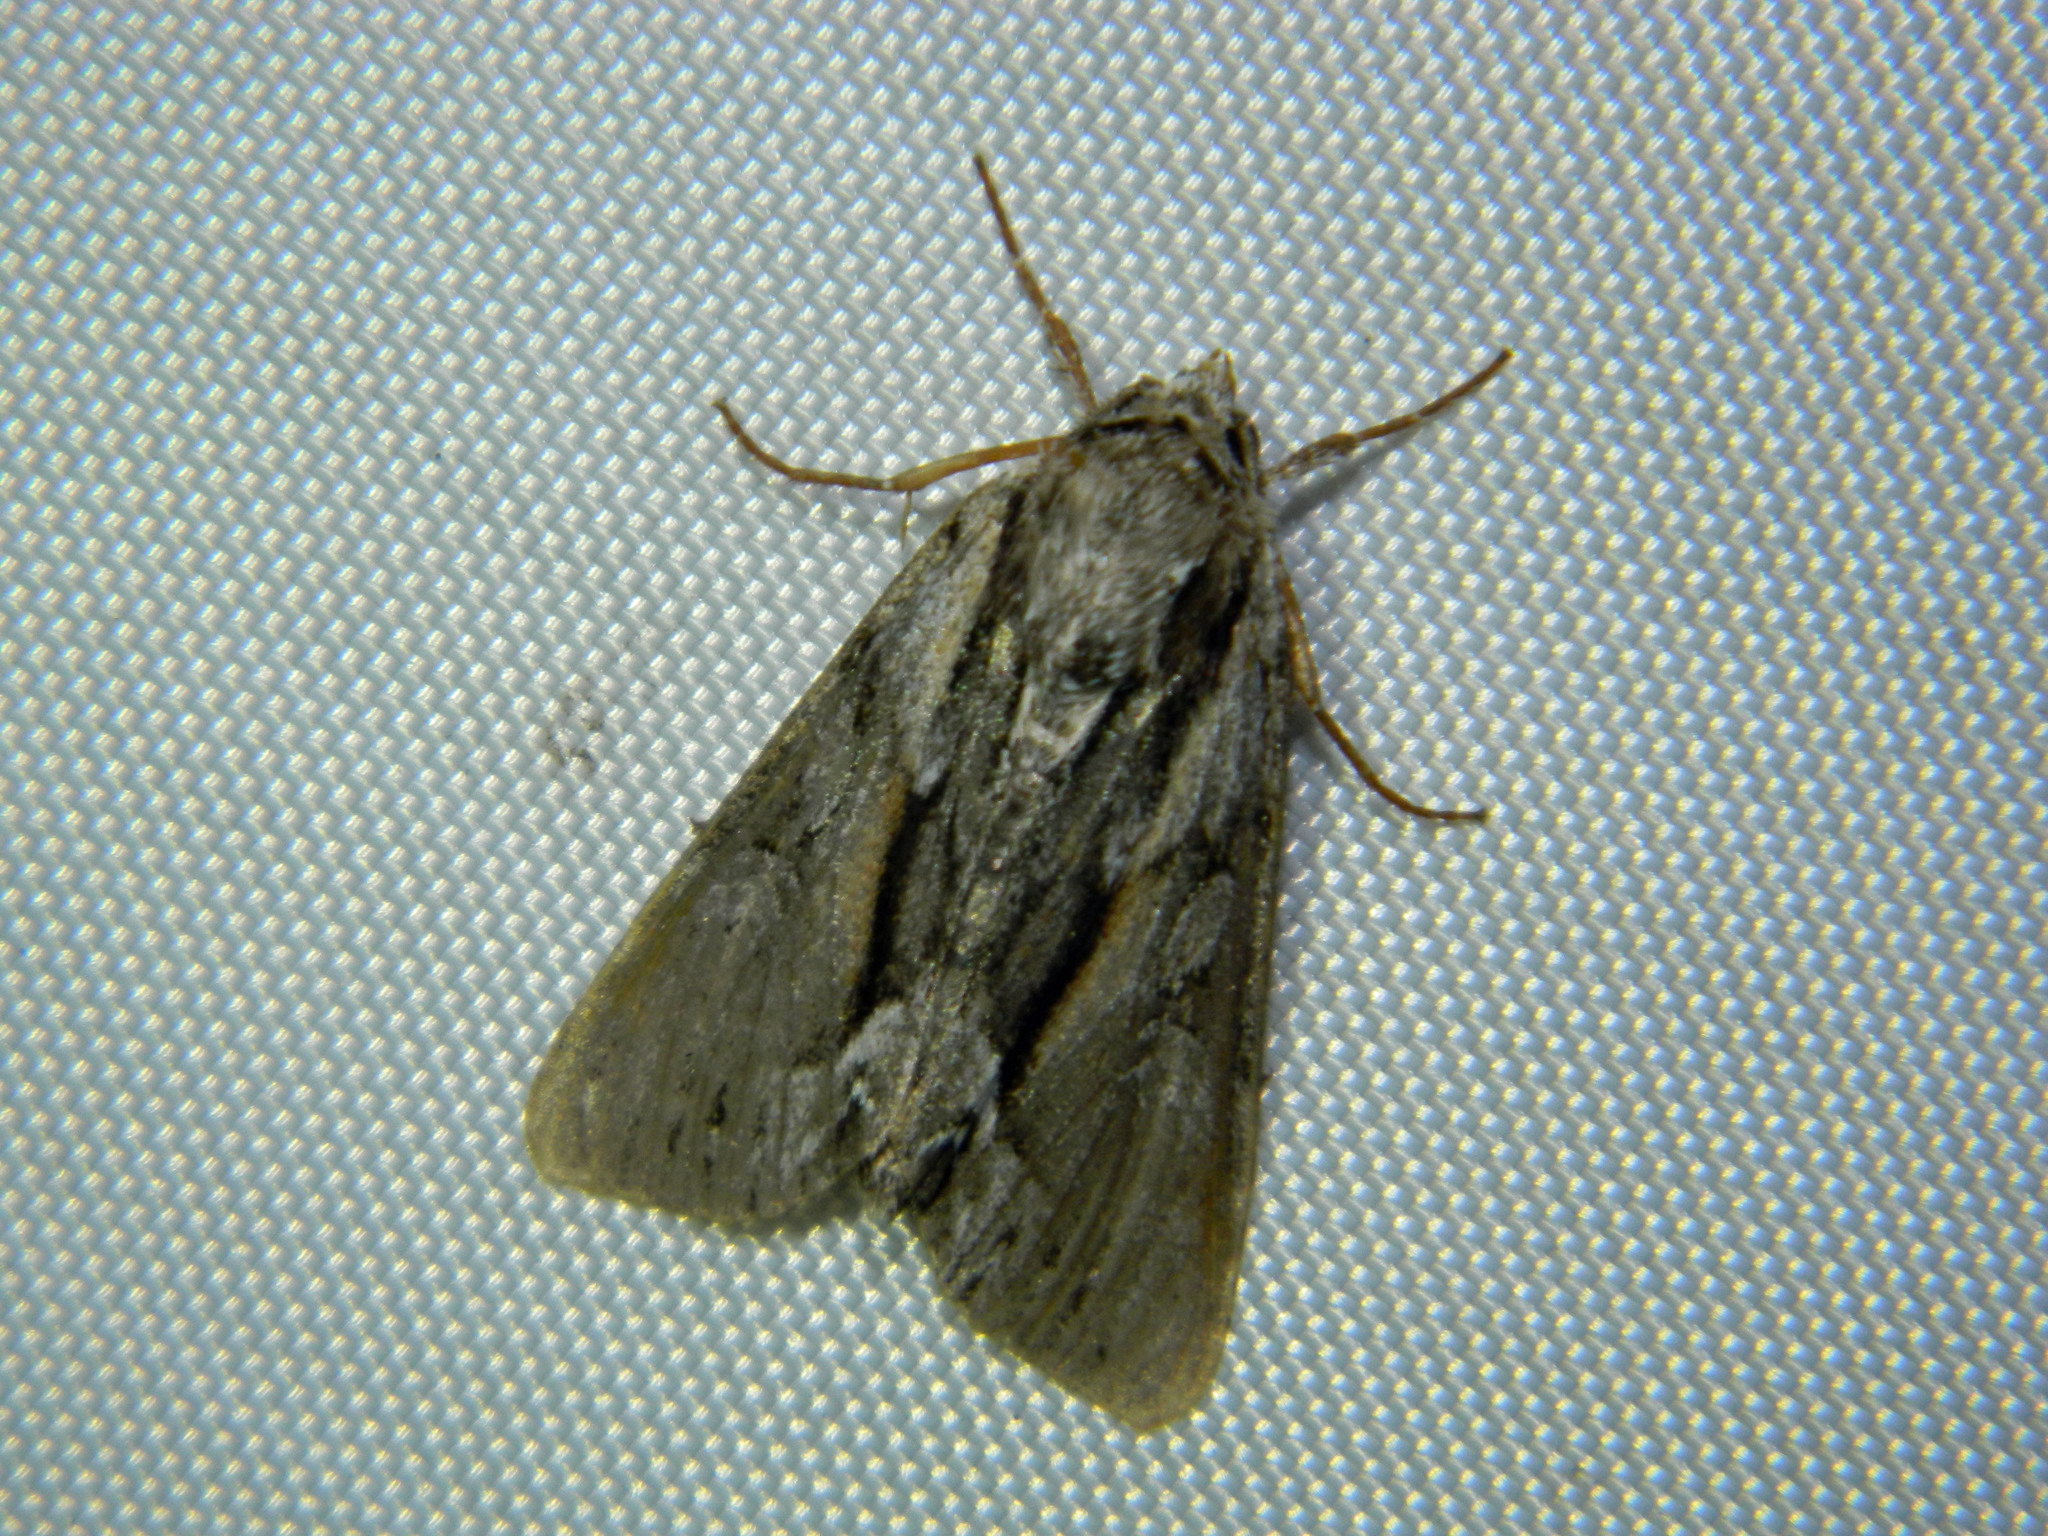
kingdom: Animalia
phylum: Arthropoda
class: Insecta
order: Lepidoptera
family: Noctuidae
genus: Hyppa
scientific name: Hyppa xylinoides
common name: Common hyppa moth
